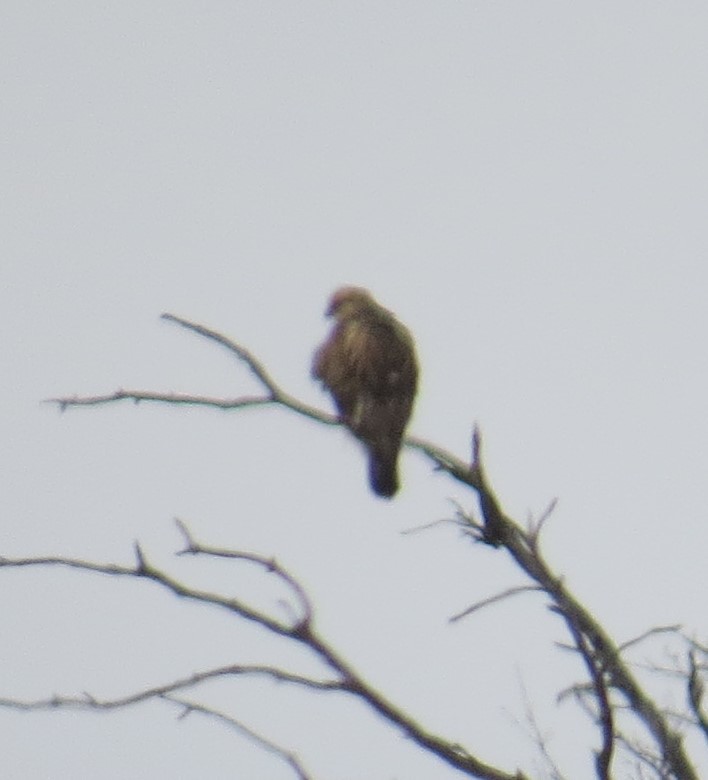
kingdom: Animalia
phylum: Chordata
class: Aves
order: Accipitriformes
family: Accipitridae
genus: Buteo
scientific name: Buteo lagopus
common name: Rough-legged buzzard
